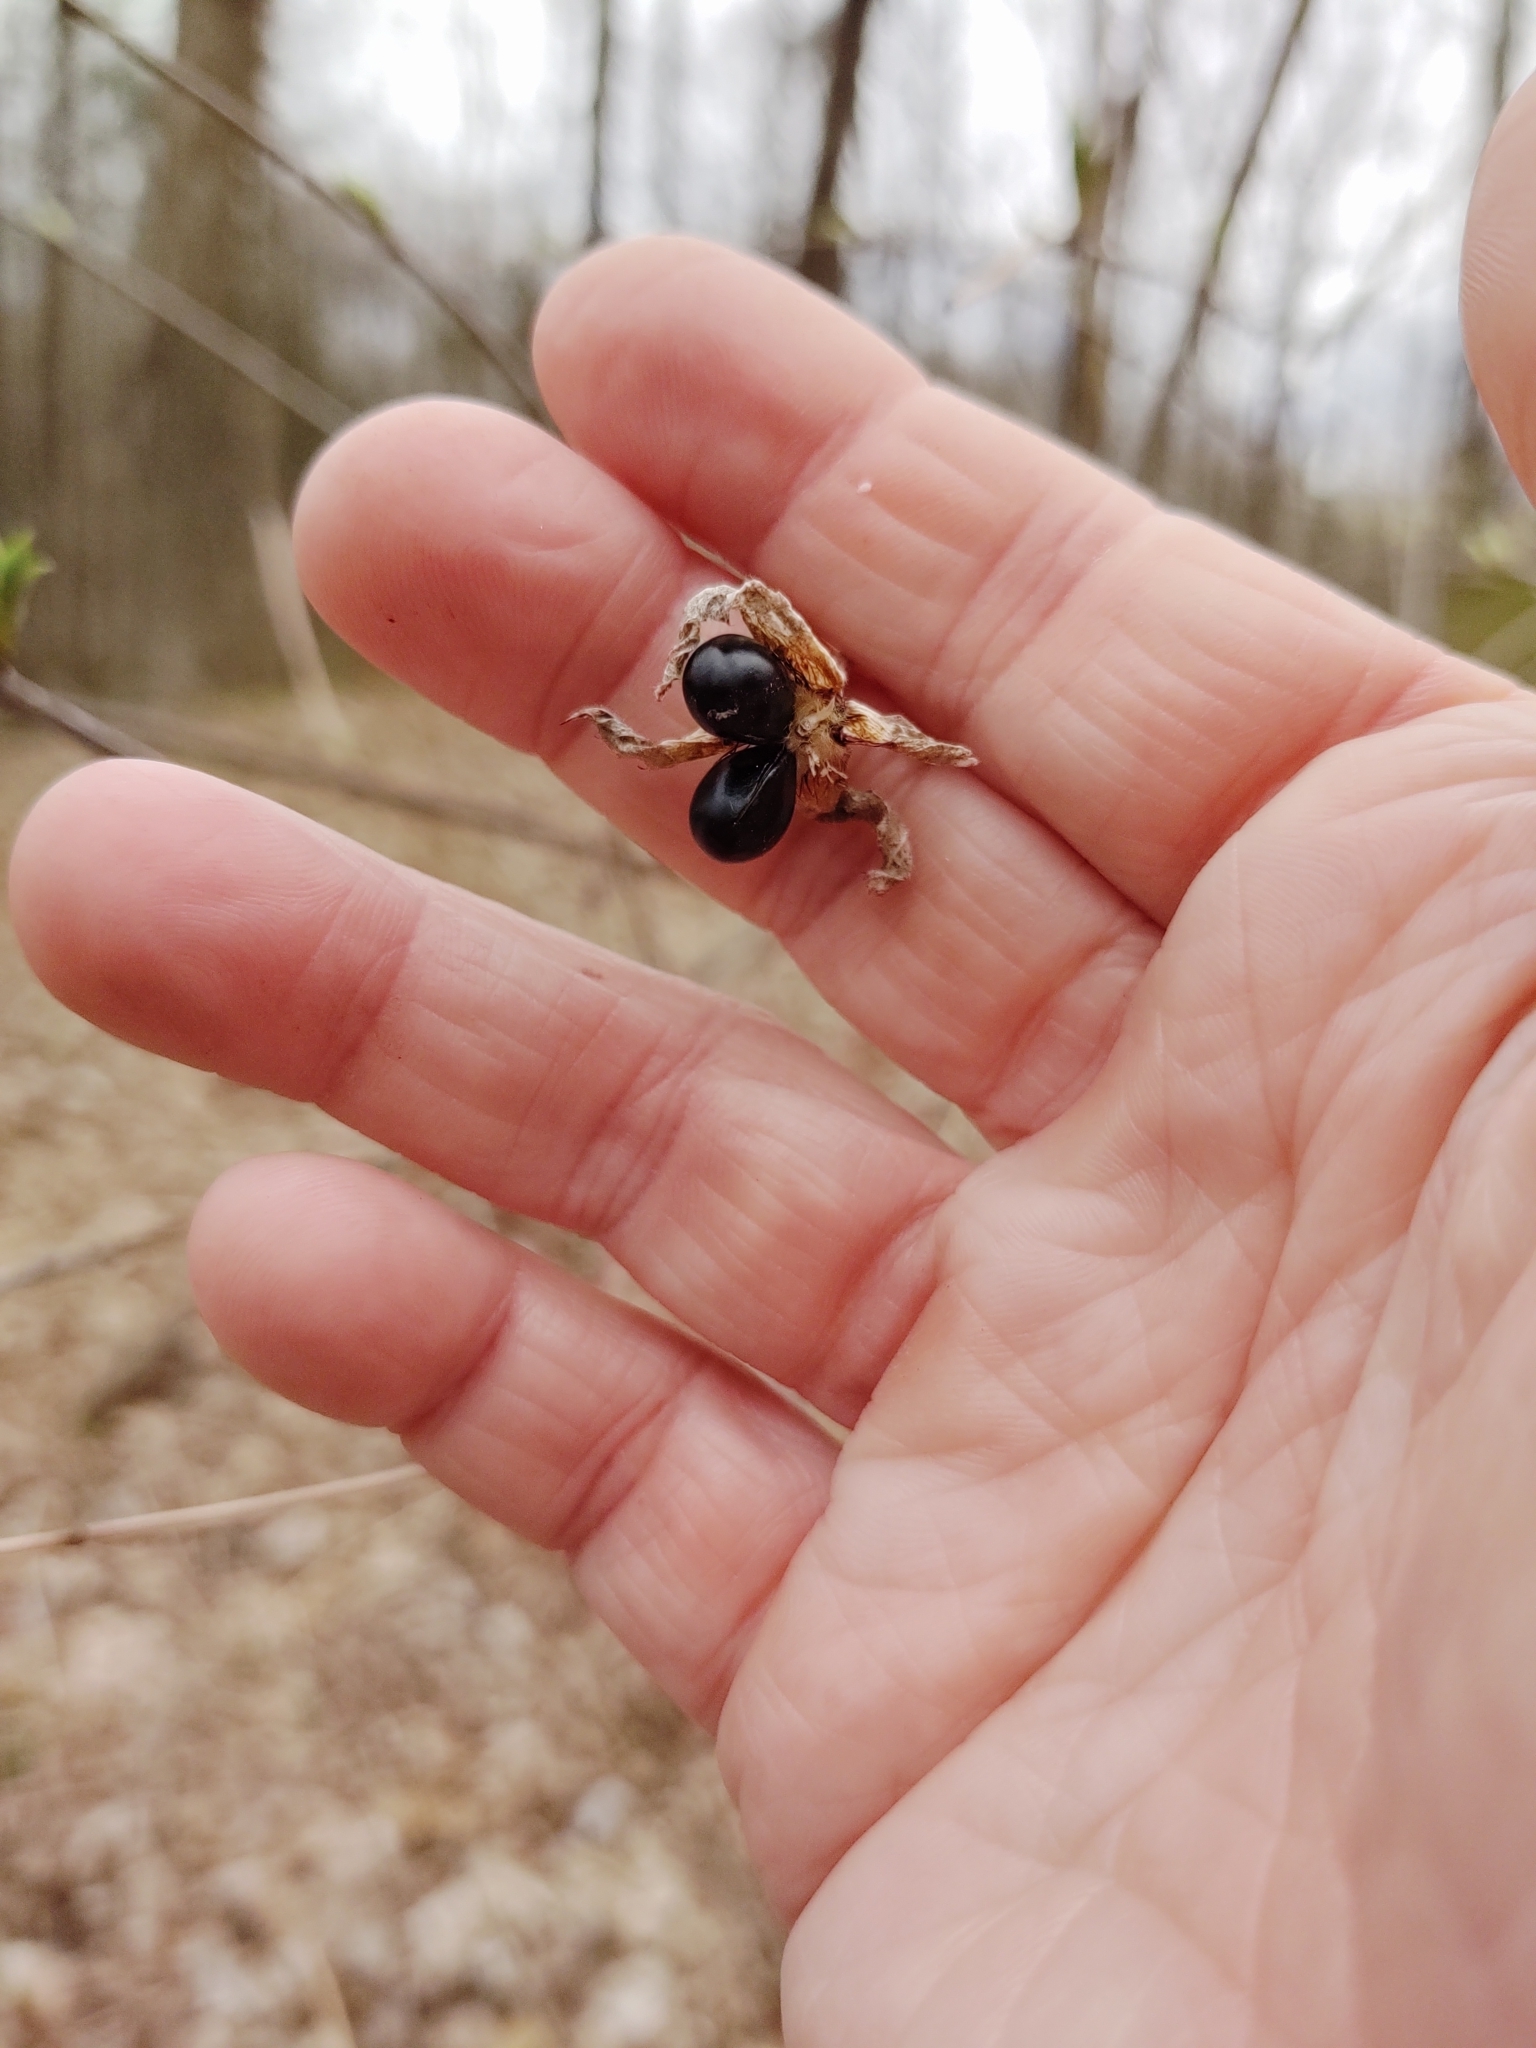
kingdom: Plantae
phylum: Tracheophyta
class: Magnoliopsida
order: Rosales
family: Rosaceae
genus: Rhodotypos
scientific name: Rhodotypos scandens
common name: Jetbead
